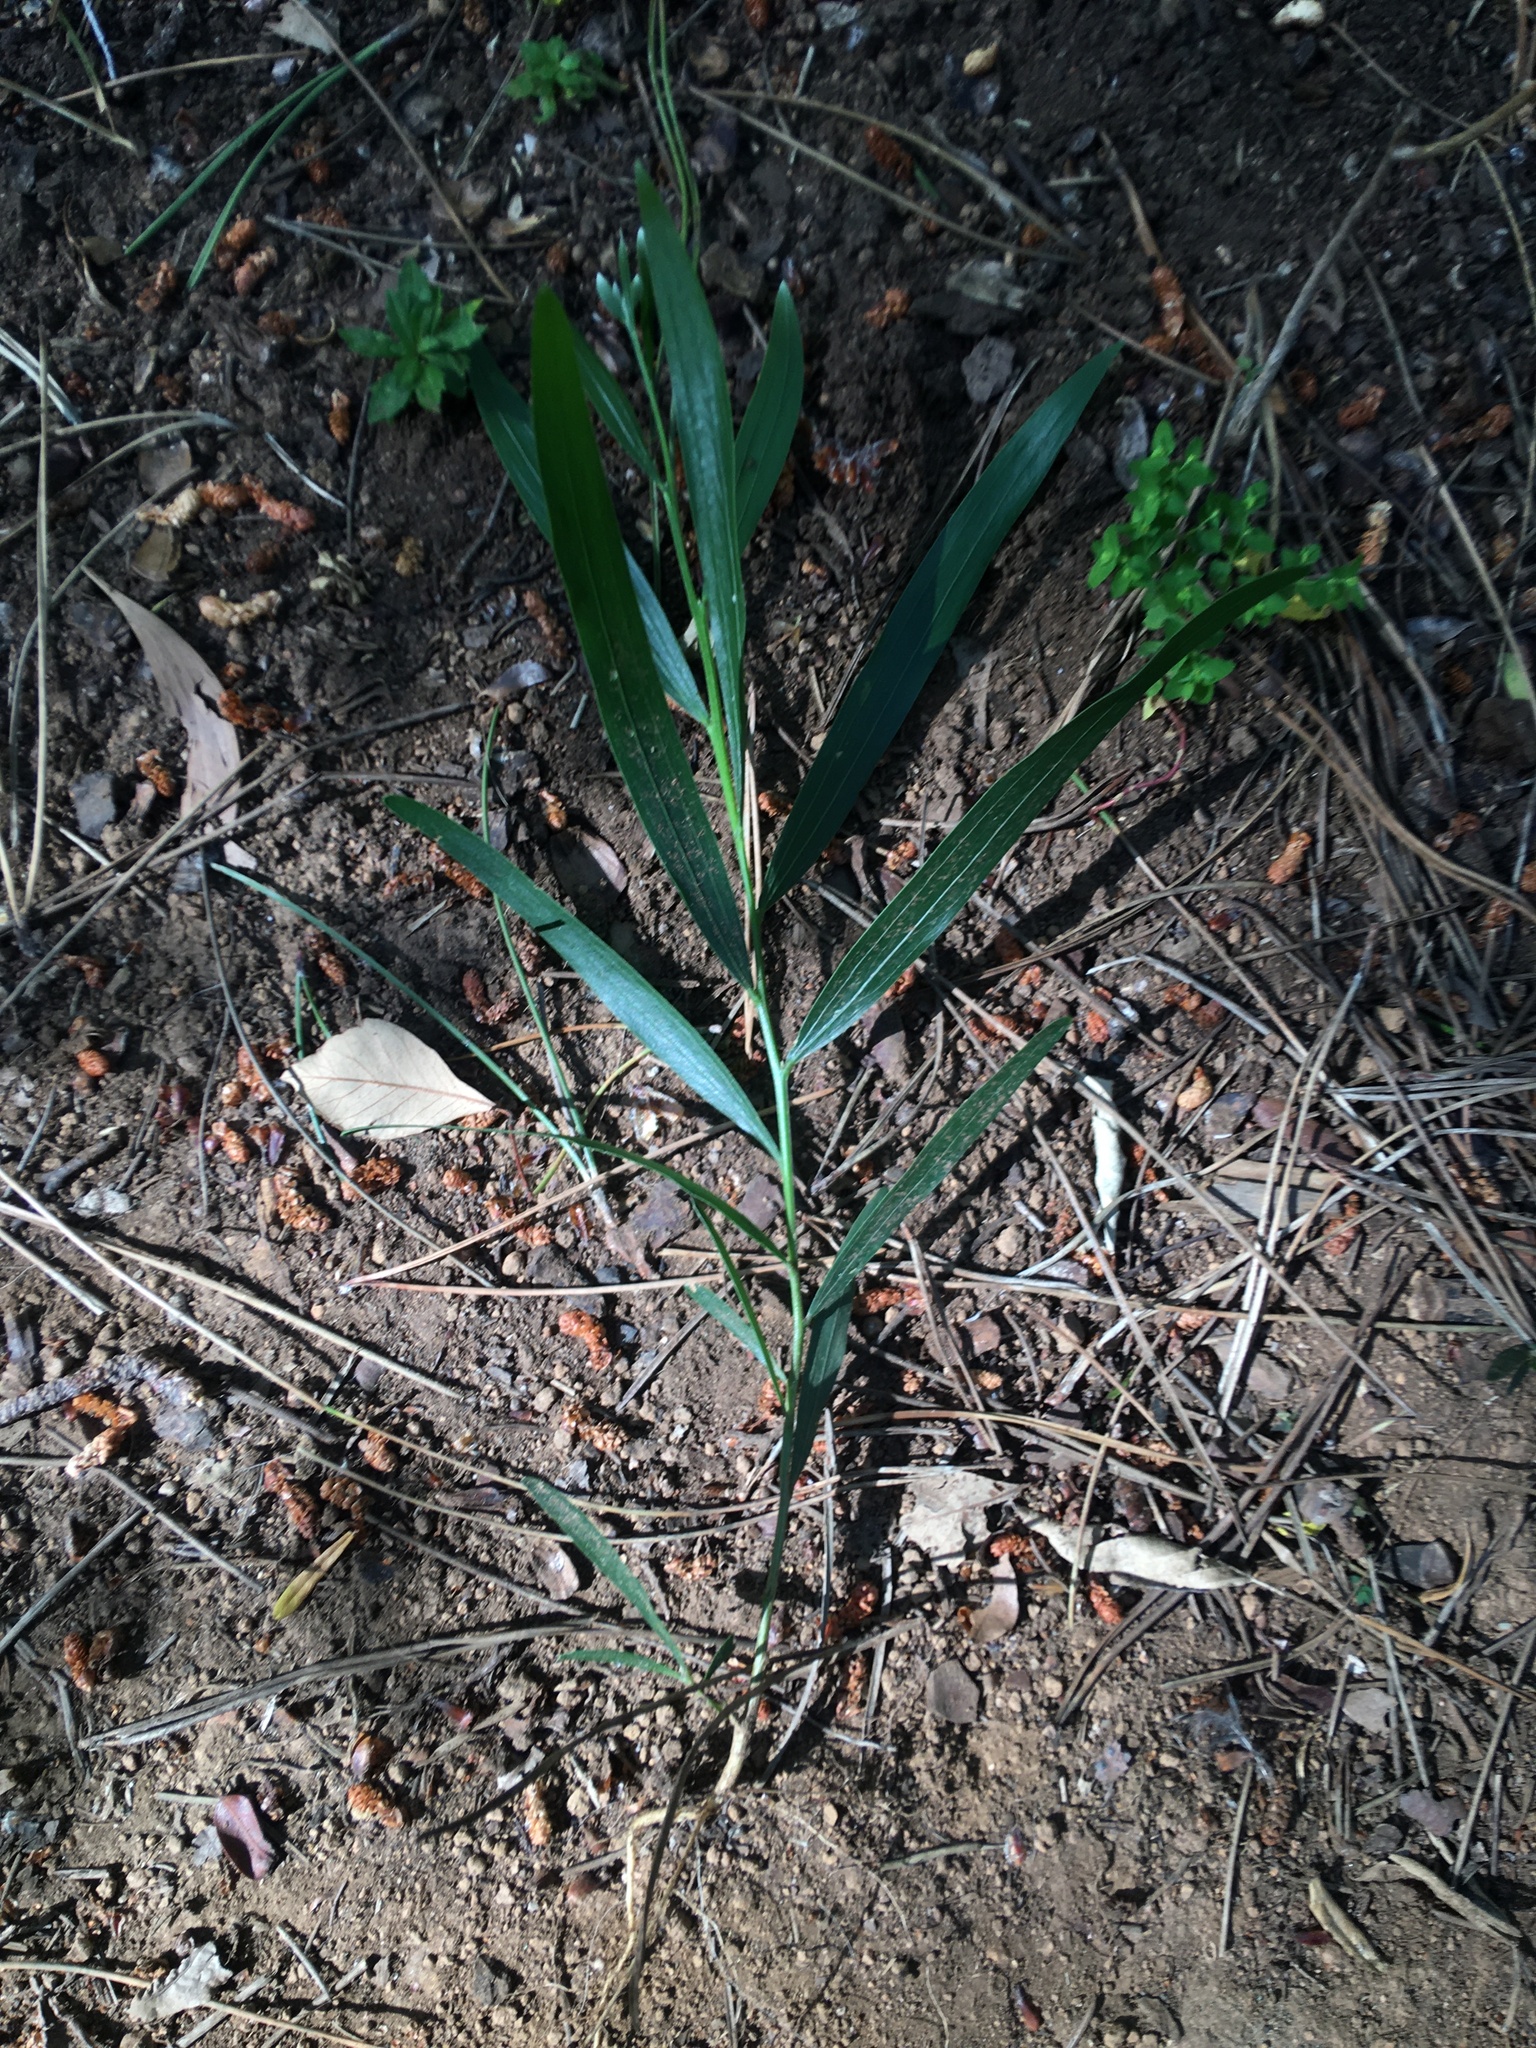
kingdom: Plantae
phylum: Tracheophyta
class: Magnoliopsida
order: Fabales
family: Fabaceae
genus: Acacia
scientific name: Acacia longifolia
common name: Sydney golden wattle
